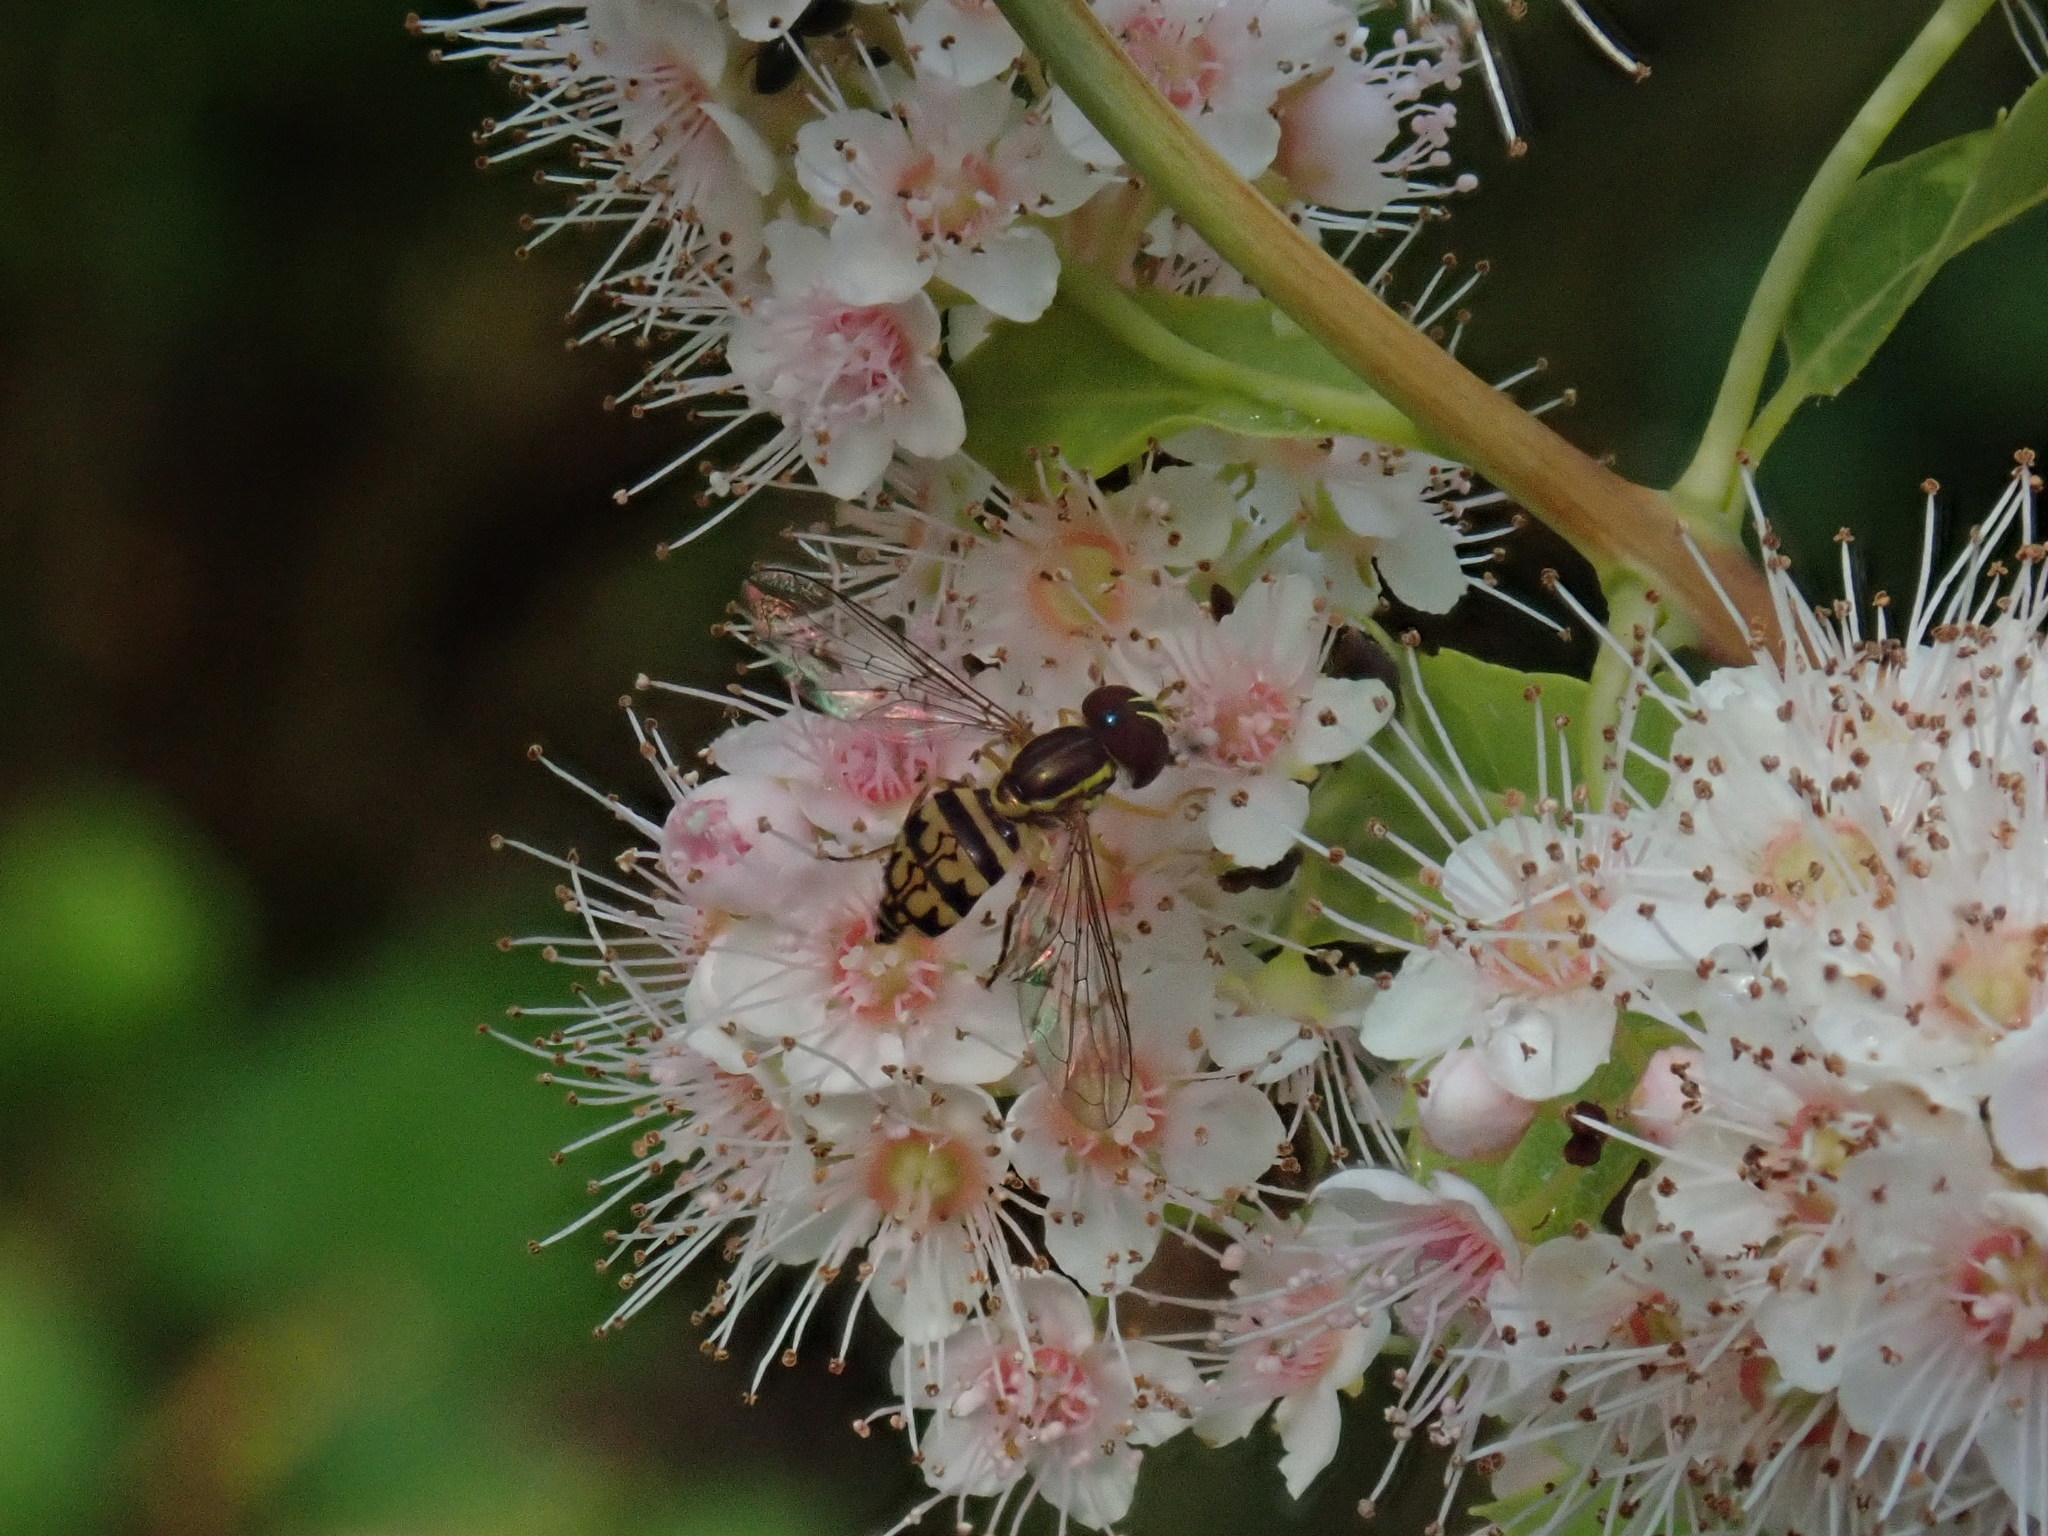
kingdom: Animalia
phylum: Arthropoda
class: Insecta
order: Diptera
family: Syrphidae
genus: Toxomerus
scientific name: Toxomerus geminatus
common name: Eastern calligrapher
